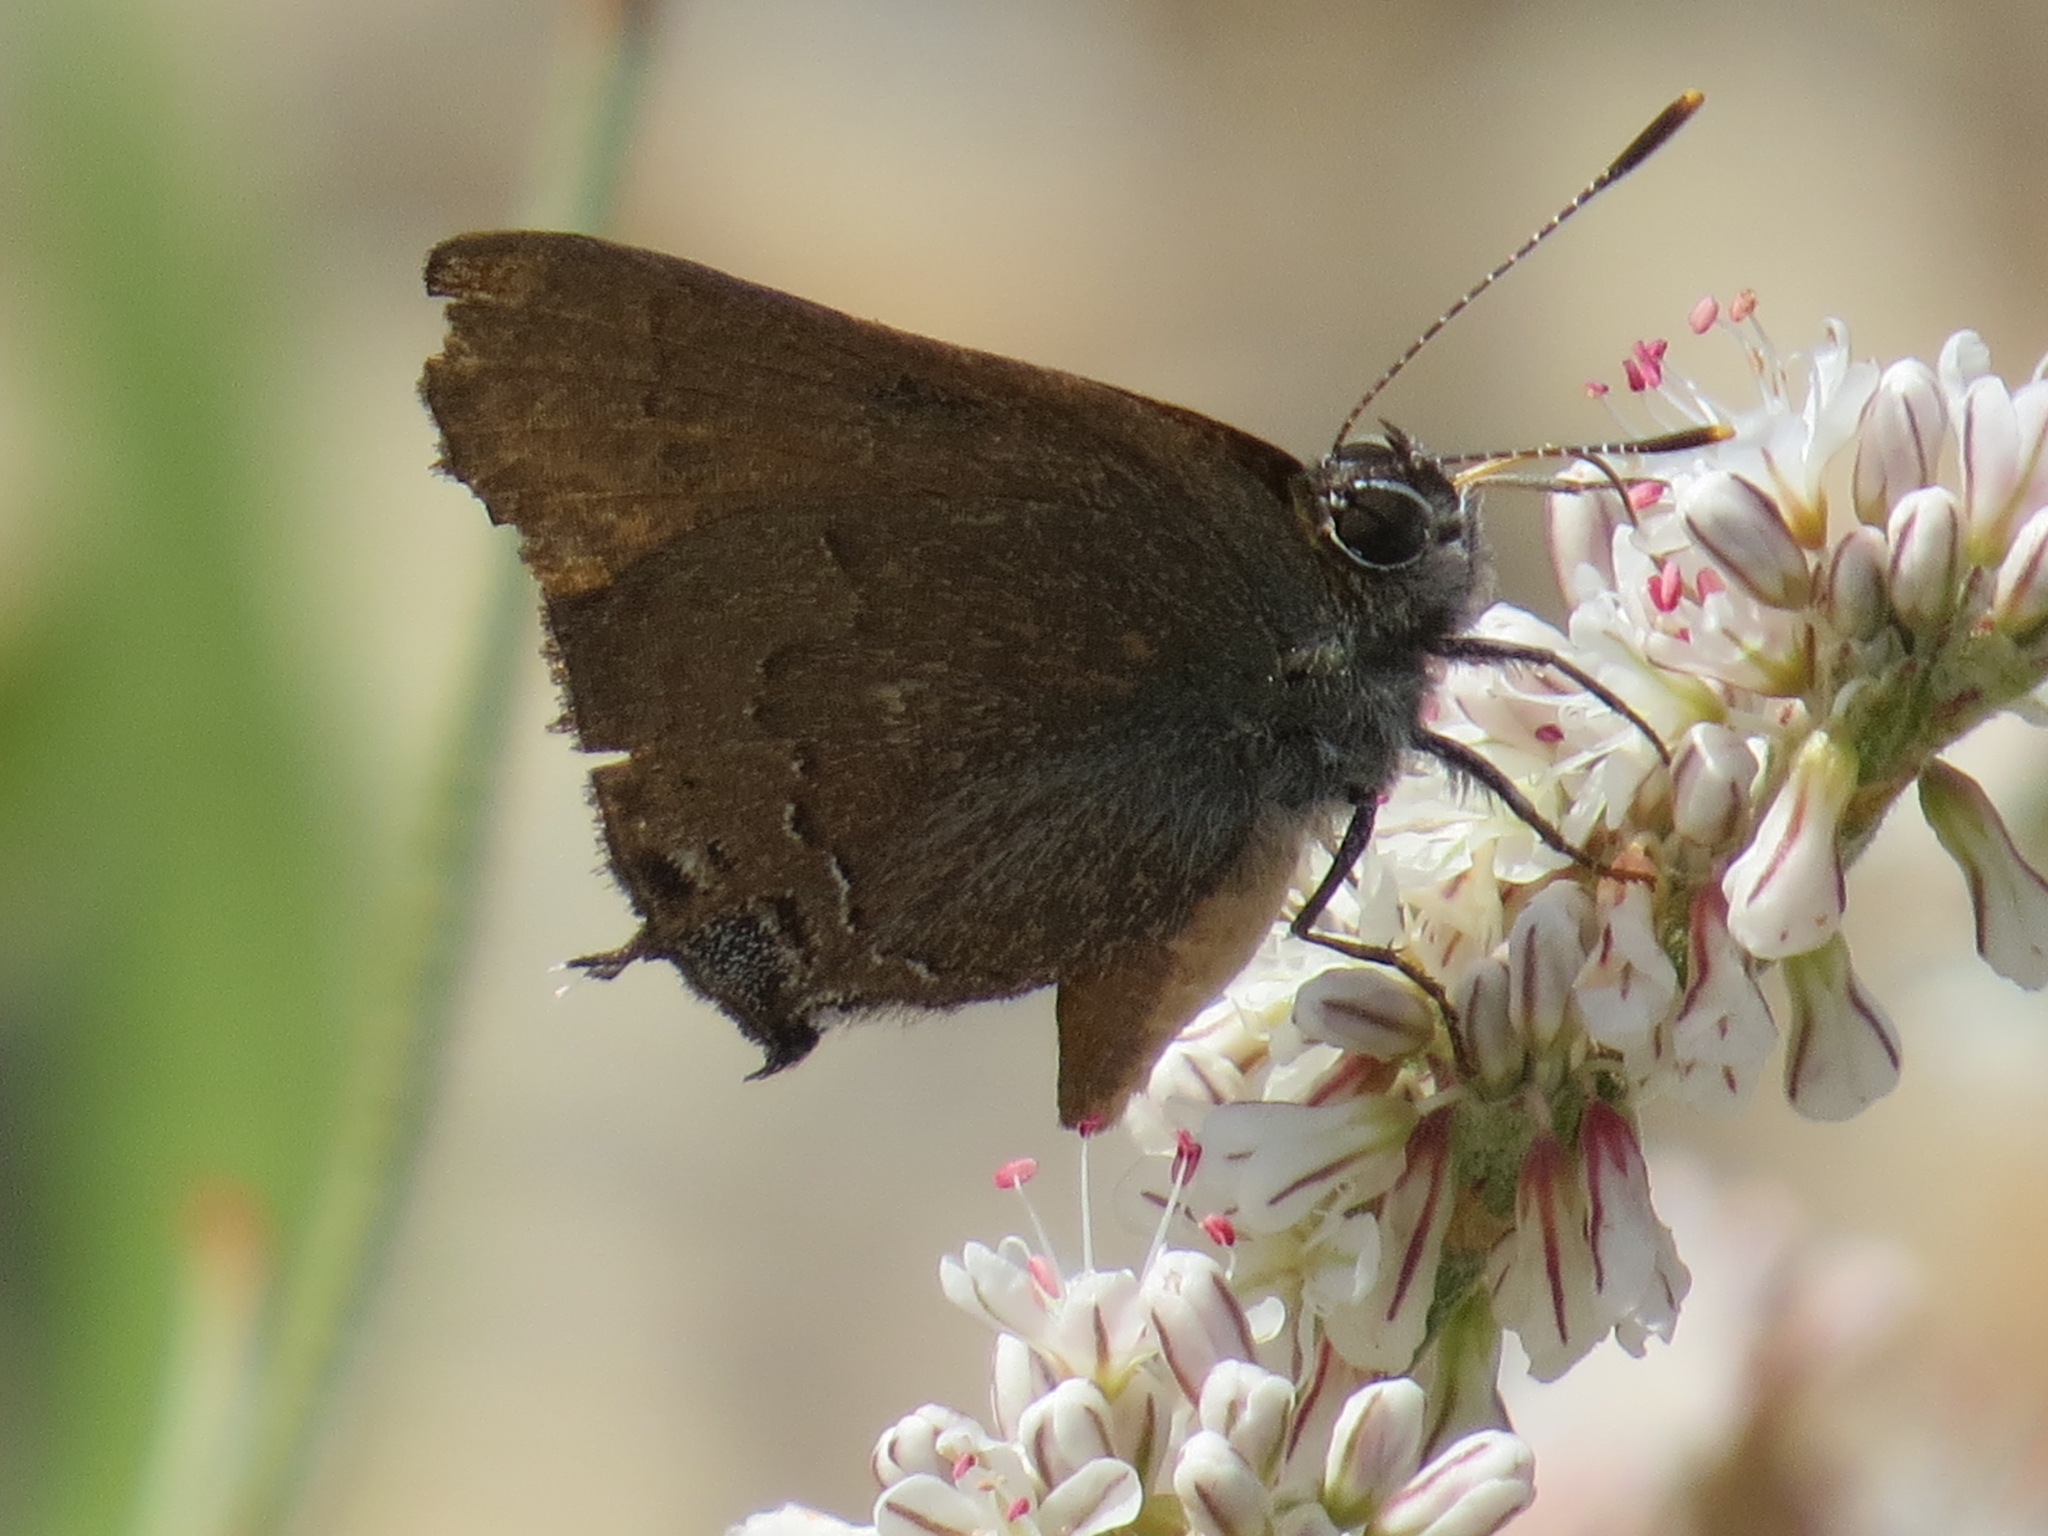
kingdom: Animalia
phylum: Arthropoda
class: Insecta
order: Lepidoptera
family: Lycaenidae
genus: Strymon
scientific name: Strymon saepium
